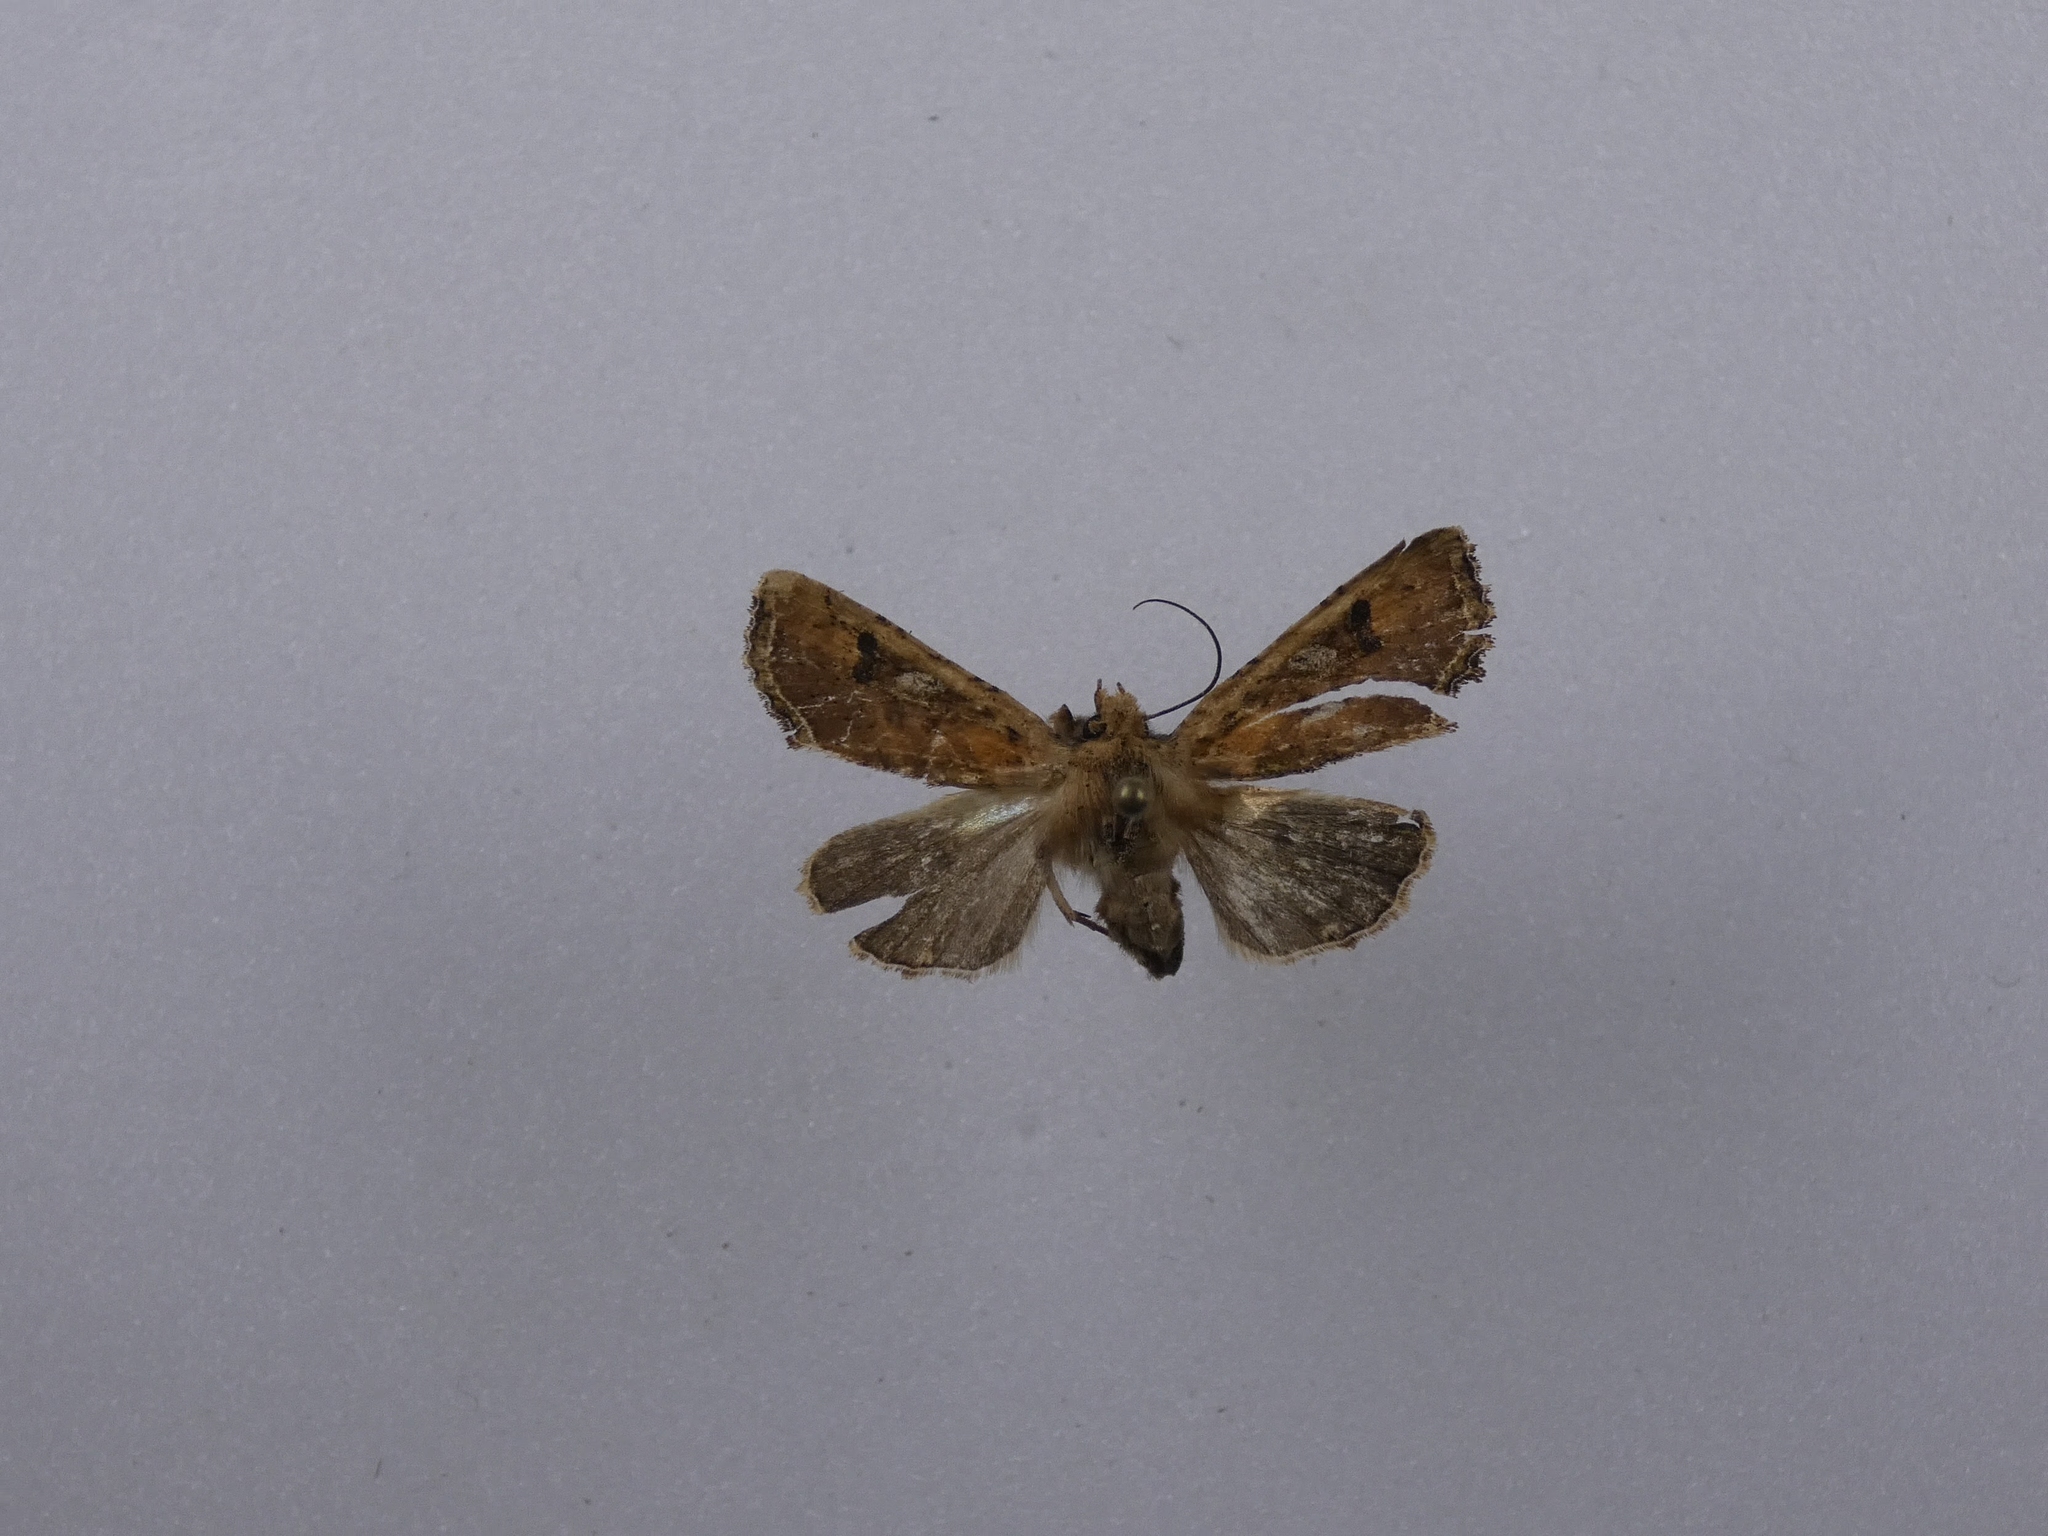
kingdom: Animalia
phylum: Arthropoda
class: Insecta
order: Lepidoptera
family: Noctuidae
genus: Meterana
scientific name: Meterana inchoata
